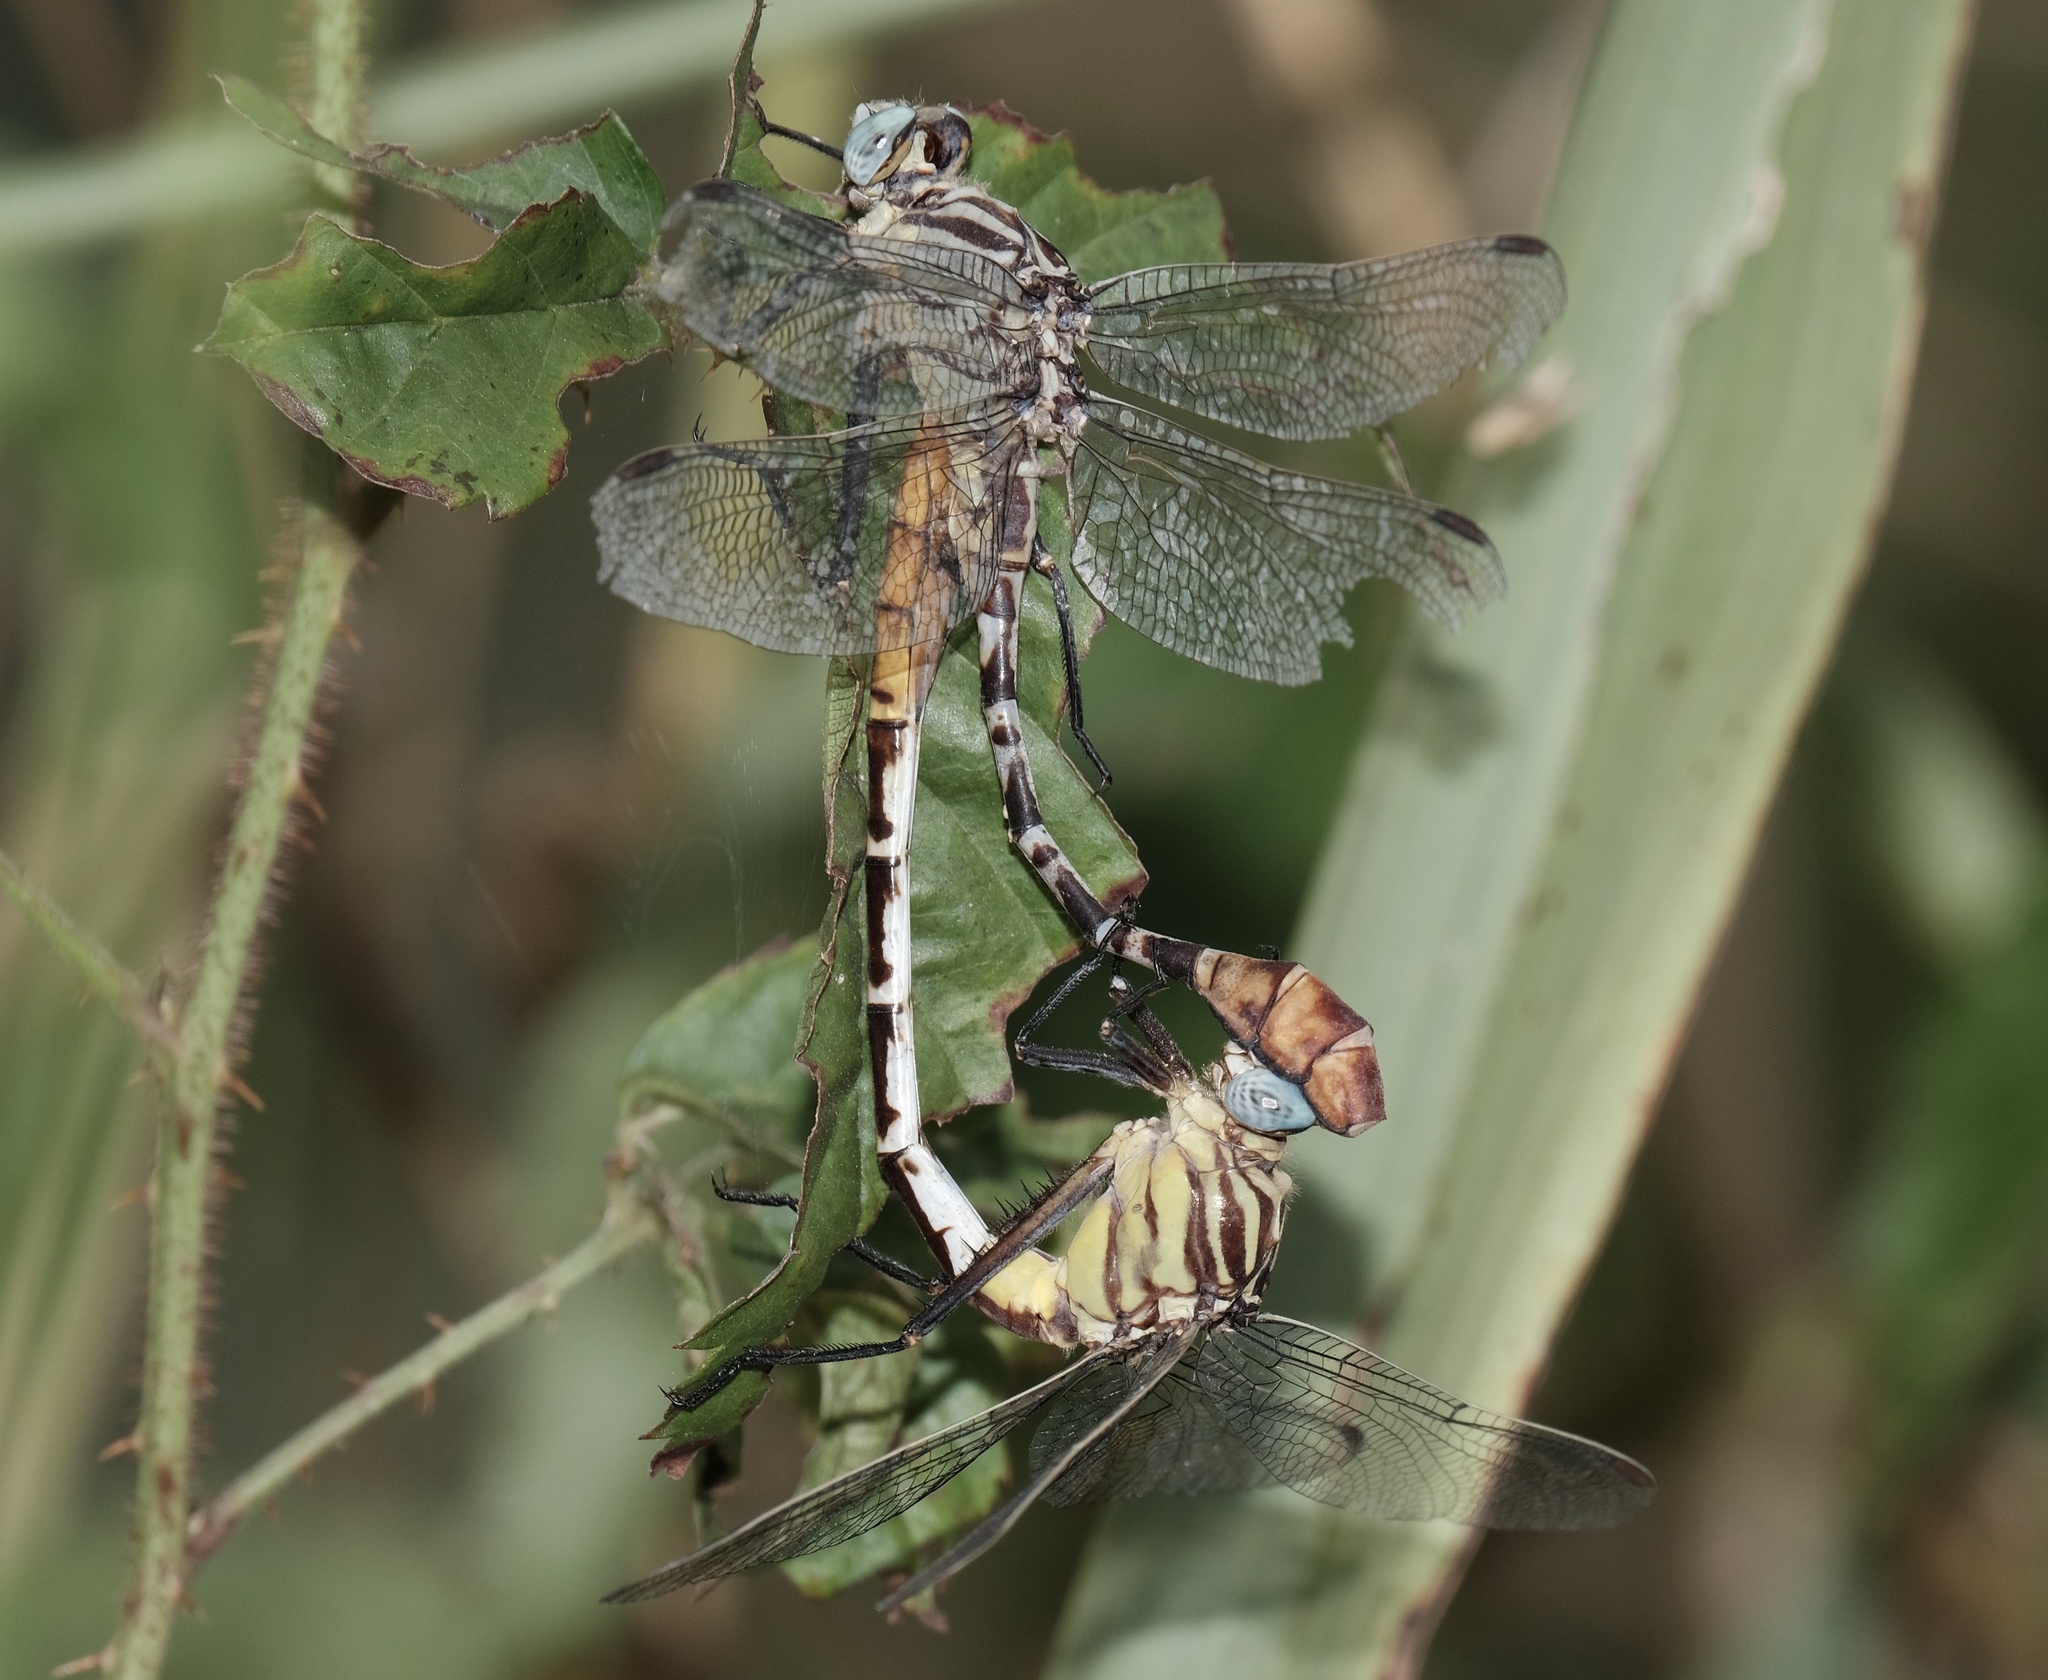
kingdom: Animalia
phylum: Arthropoda
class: Insecta
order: Odonata
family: Gomphidae
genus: Dromogomphus
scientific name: Dromogomphus spoliatus
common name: Flag-tailed spinyleg
